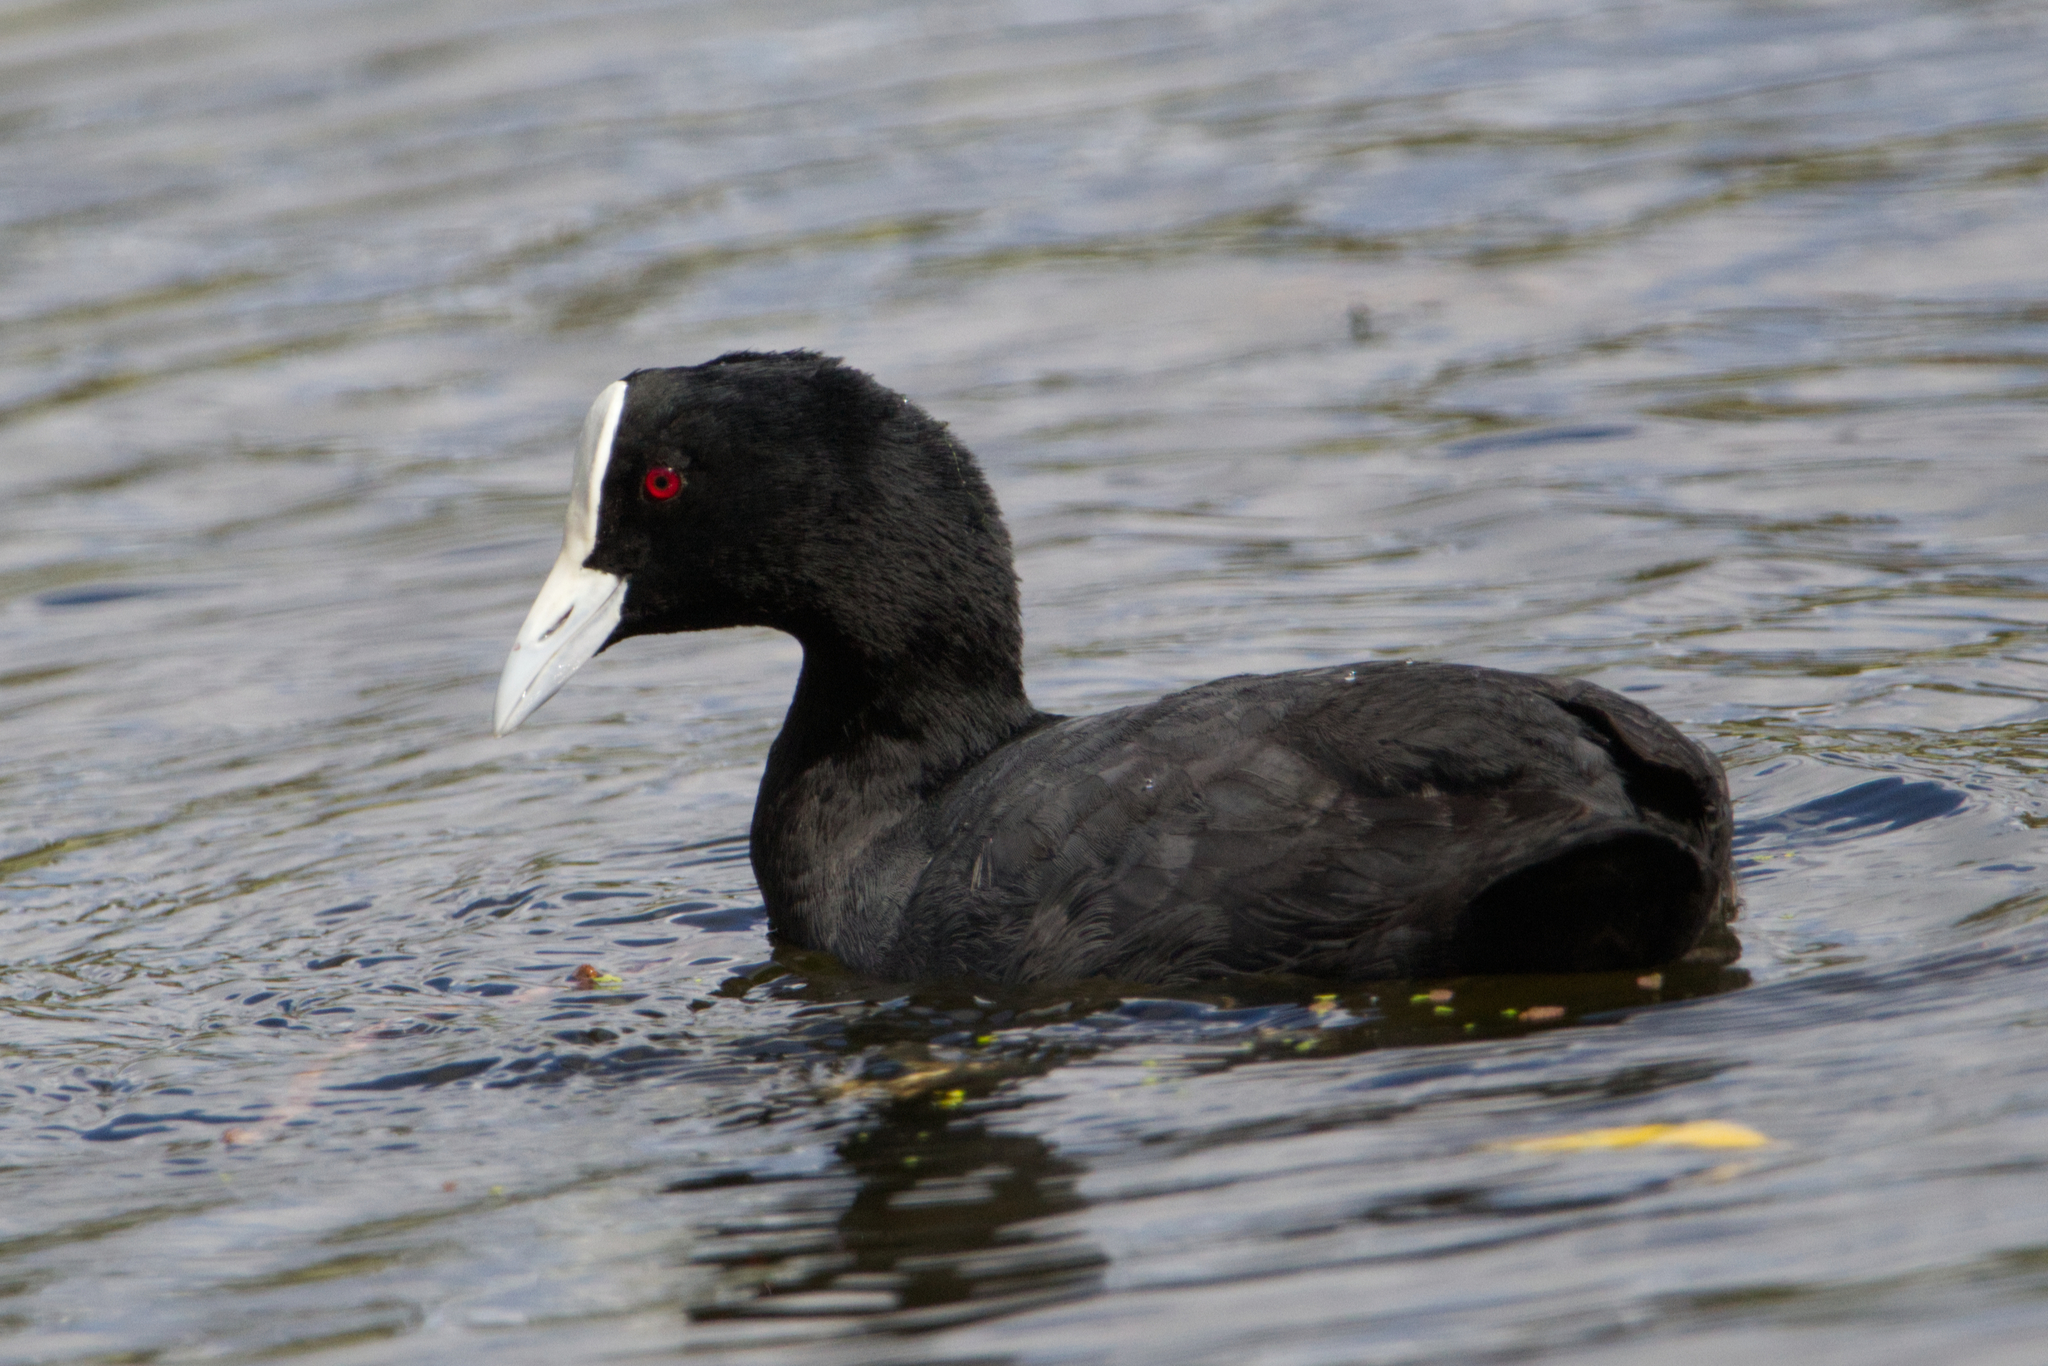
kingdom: Animalia
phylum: Chordata
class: Aves
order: Gruiformes
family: Rallidae
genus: Fulica
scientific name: Fulica atra
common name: Eurasian coot
